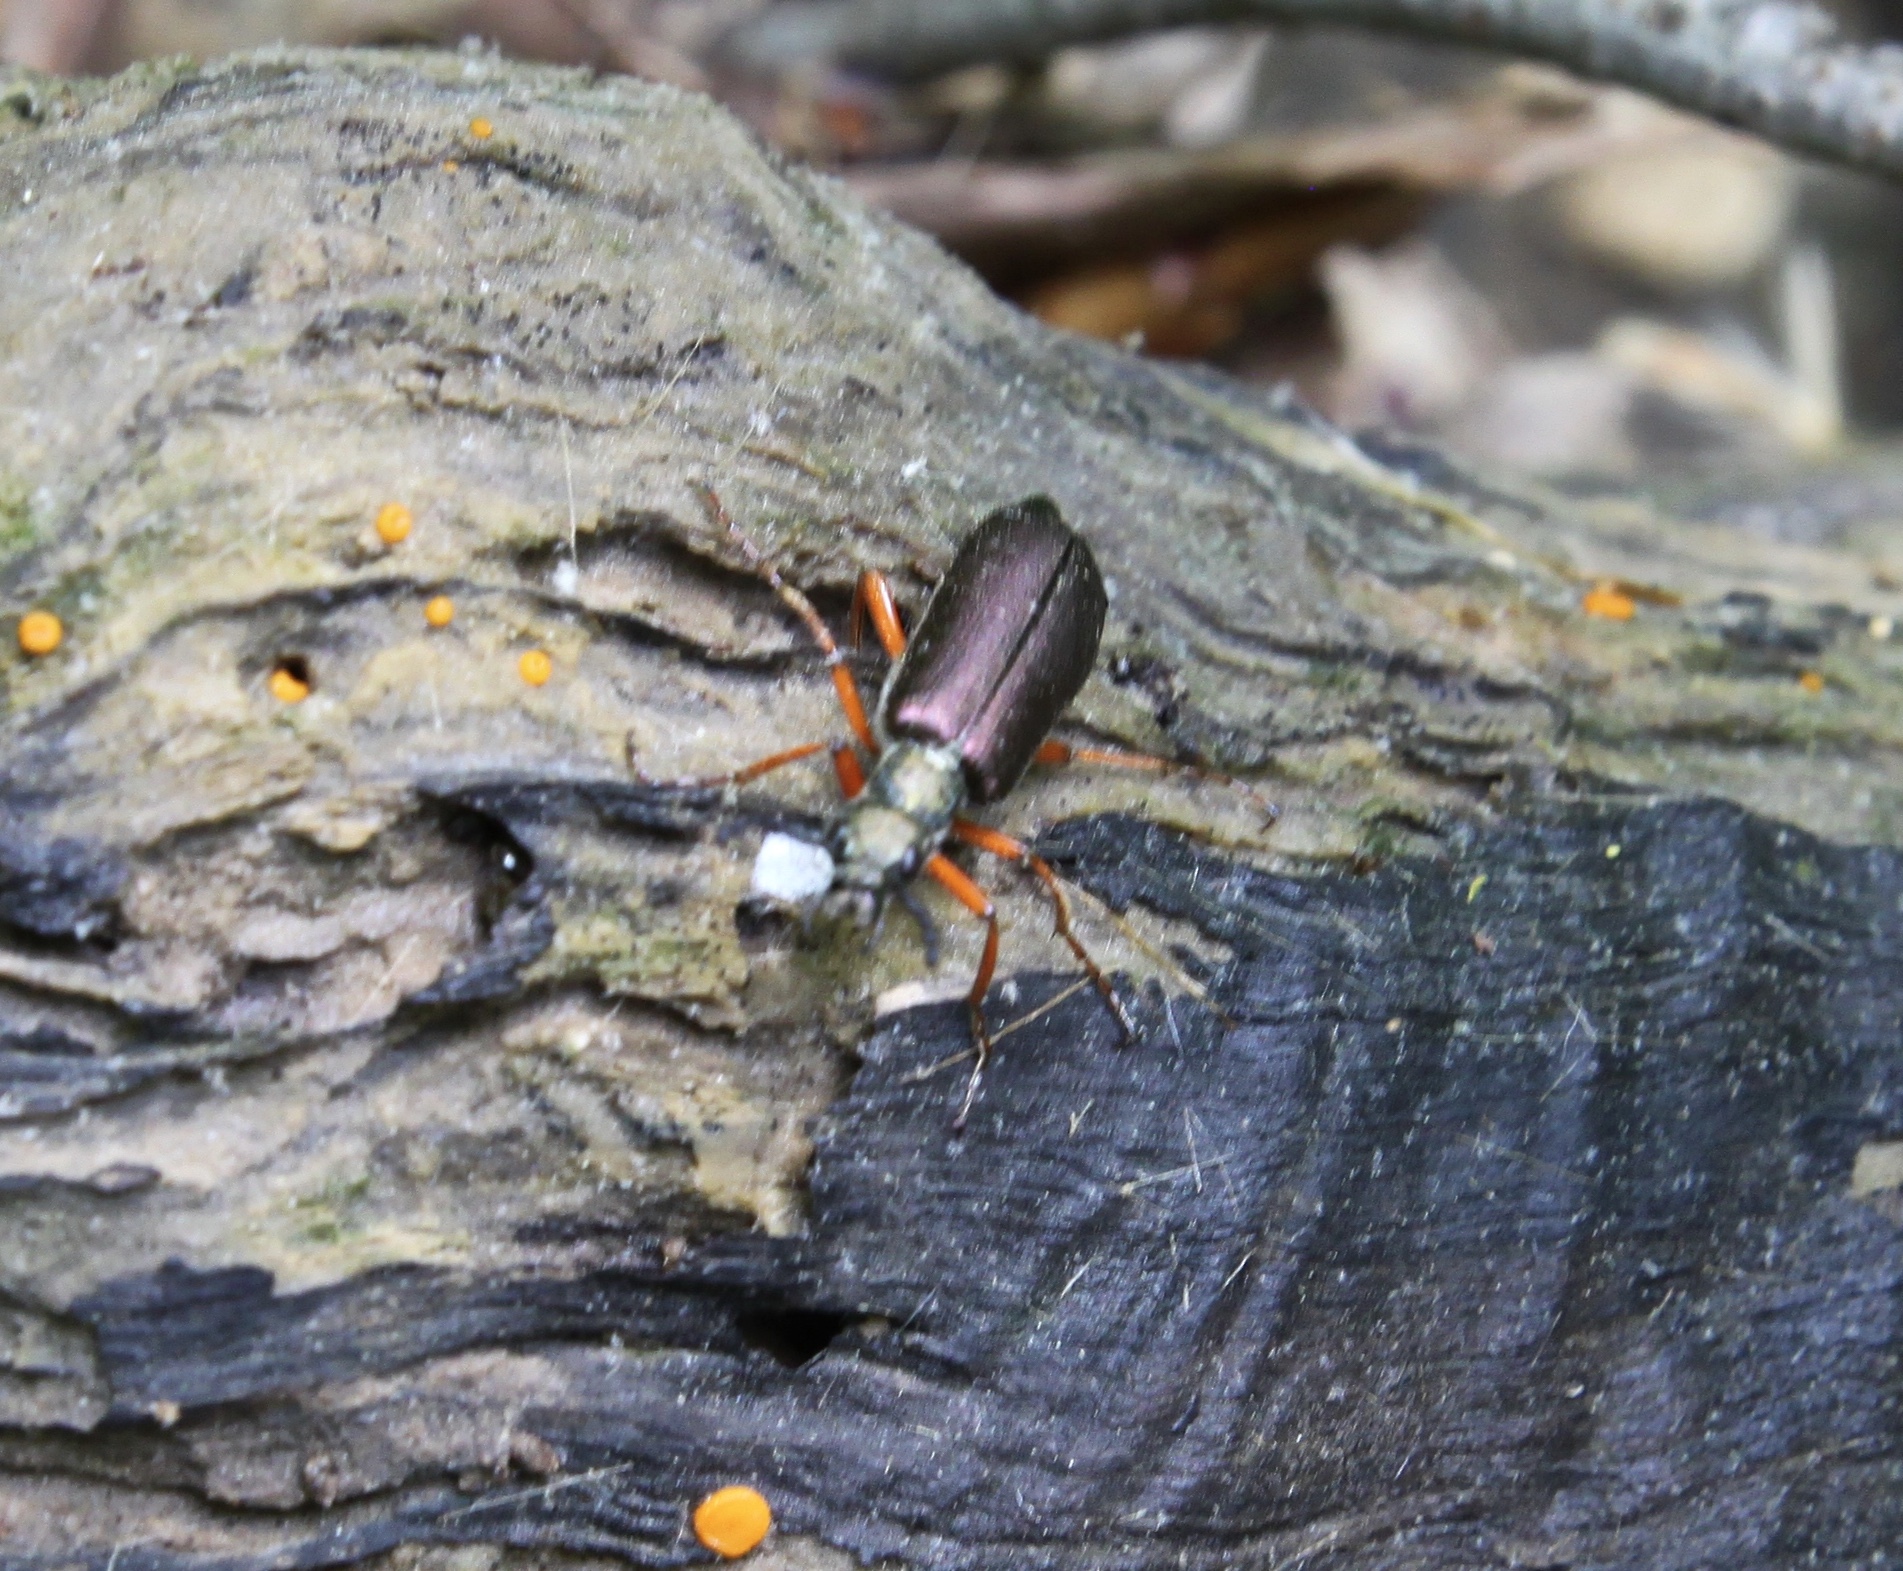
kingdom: Animalia
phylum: Arthropoda
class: Insecta
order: Coleoptera
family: Meloidae
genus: Lytta
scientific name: Lytta aenea
